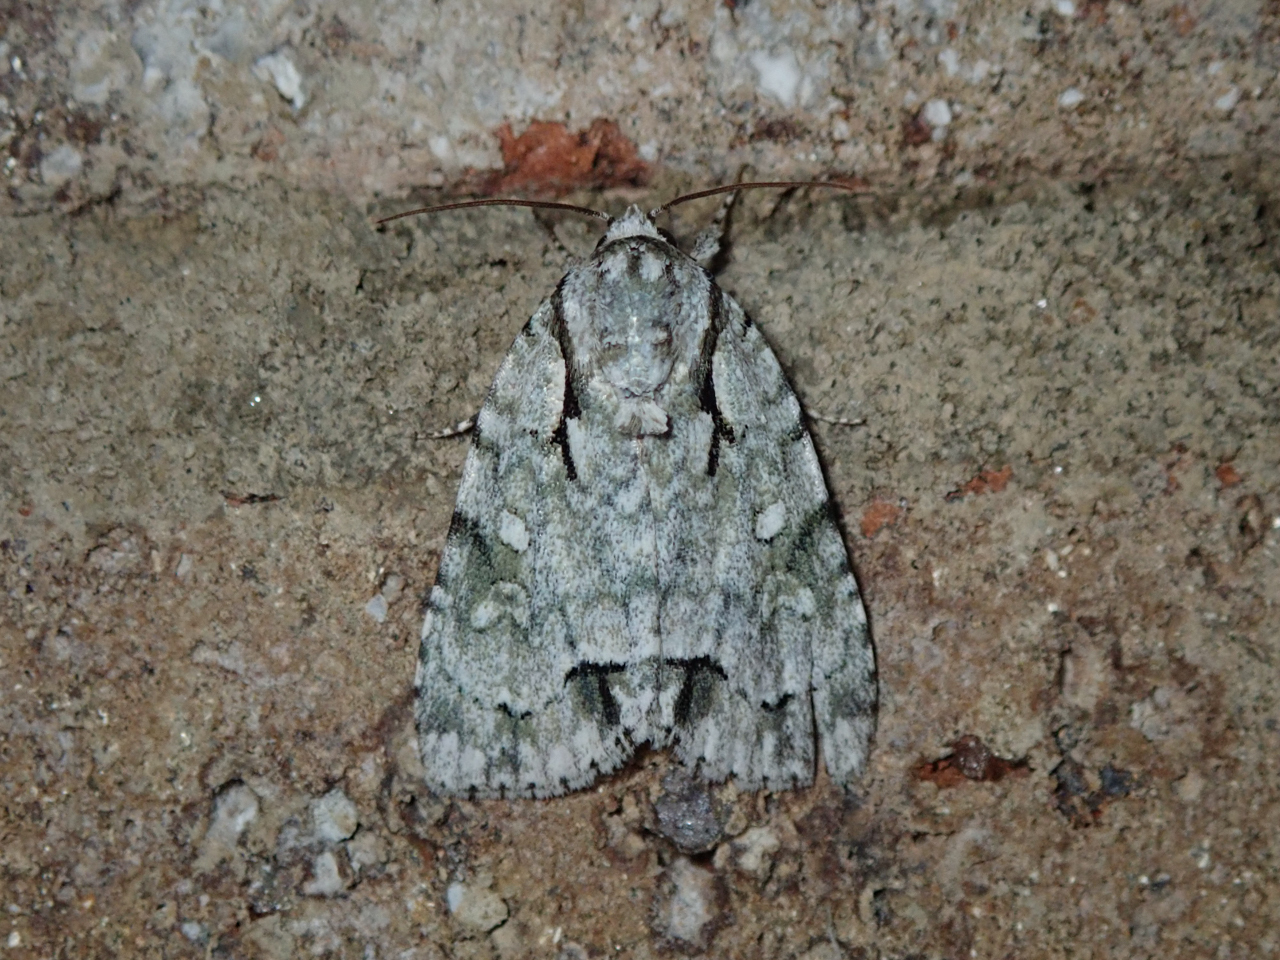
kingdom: Animalia
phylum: Arthropoda
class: Insecta
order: Lepidoptera
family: Noctuidae
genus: Acronicta
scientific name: Acronicta vinnula
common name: Delightful dagger
